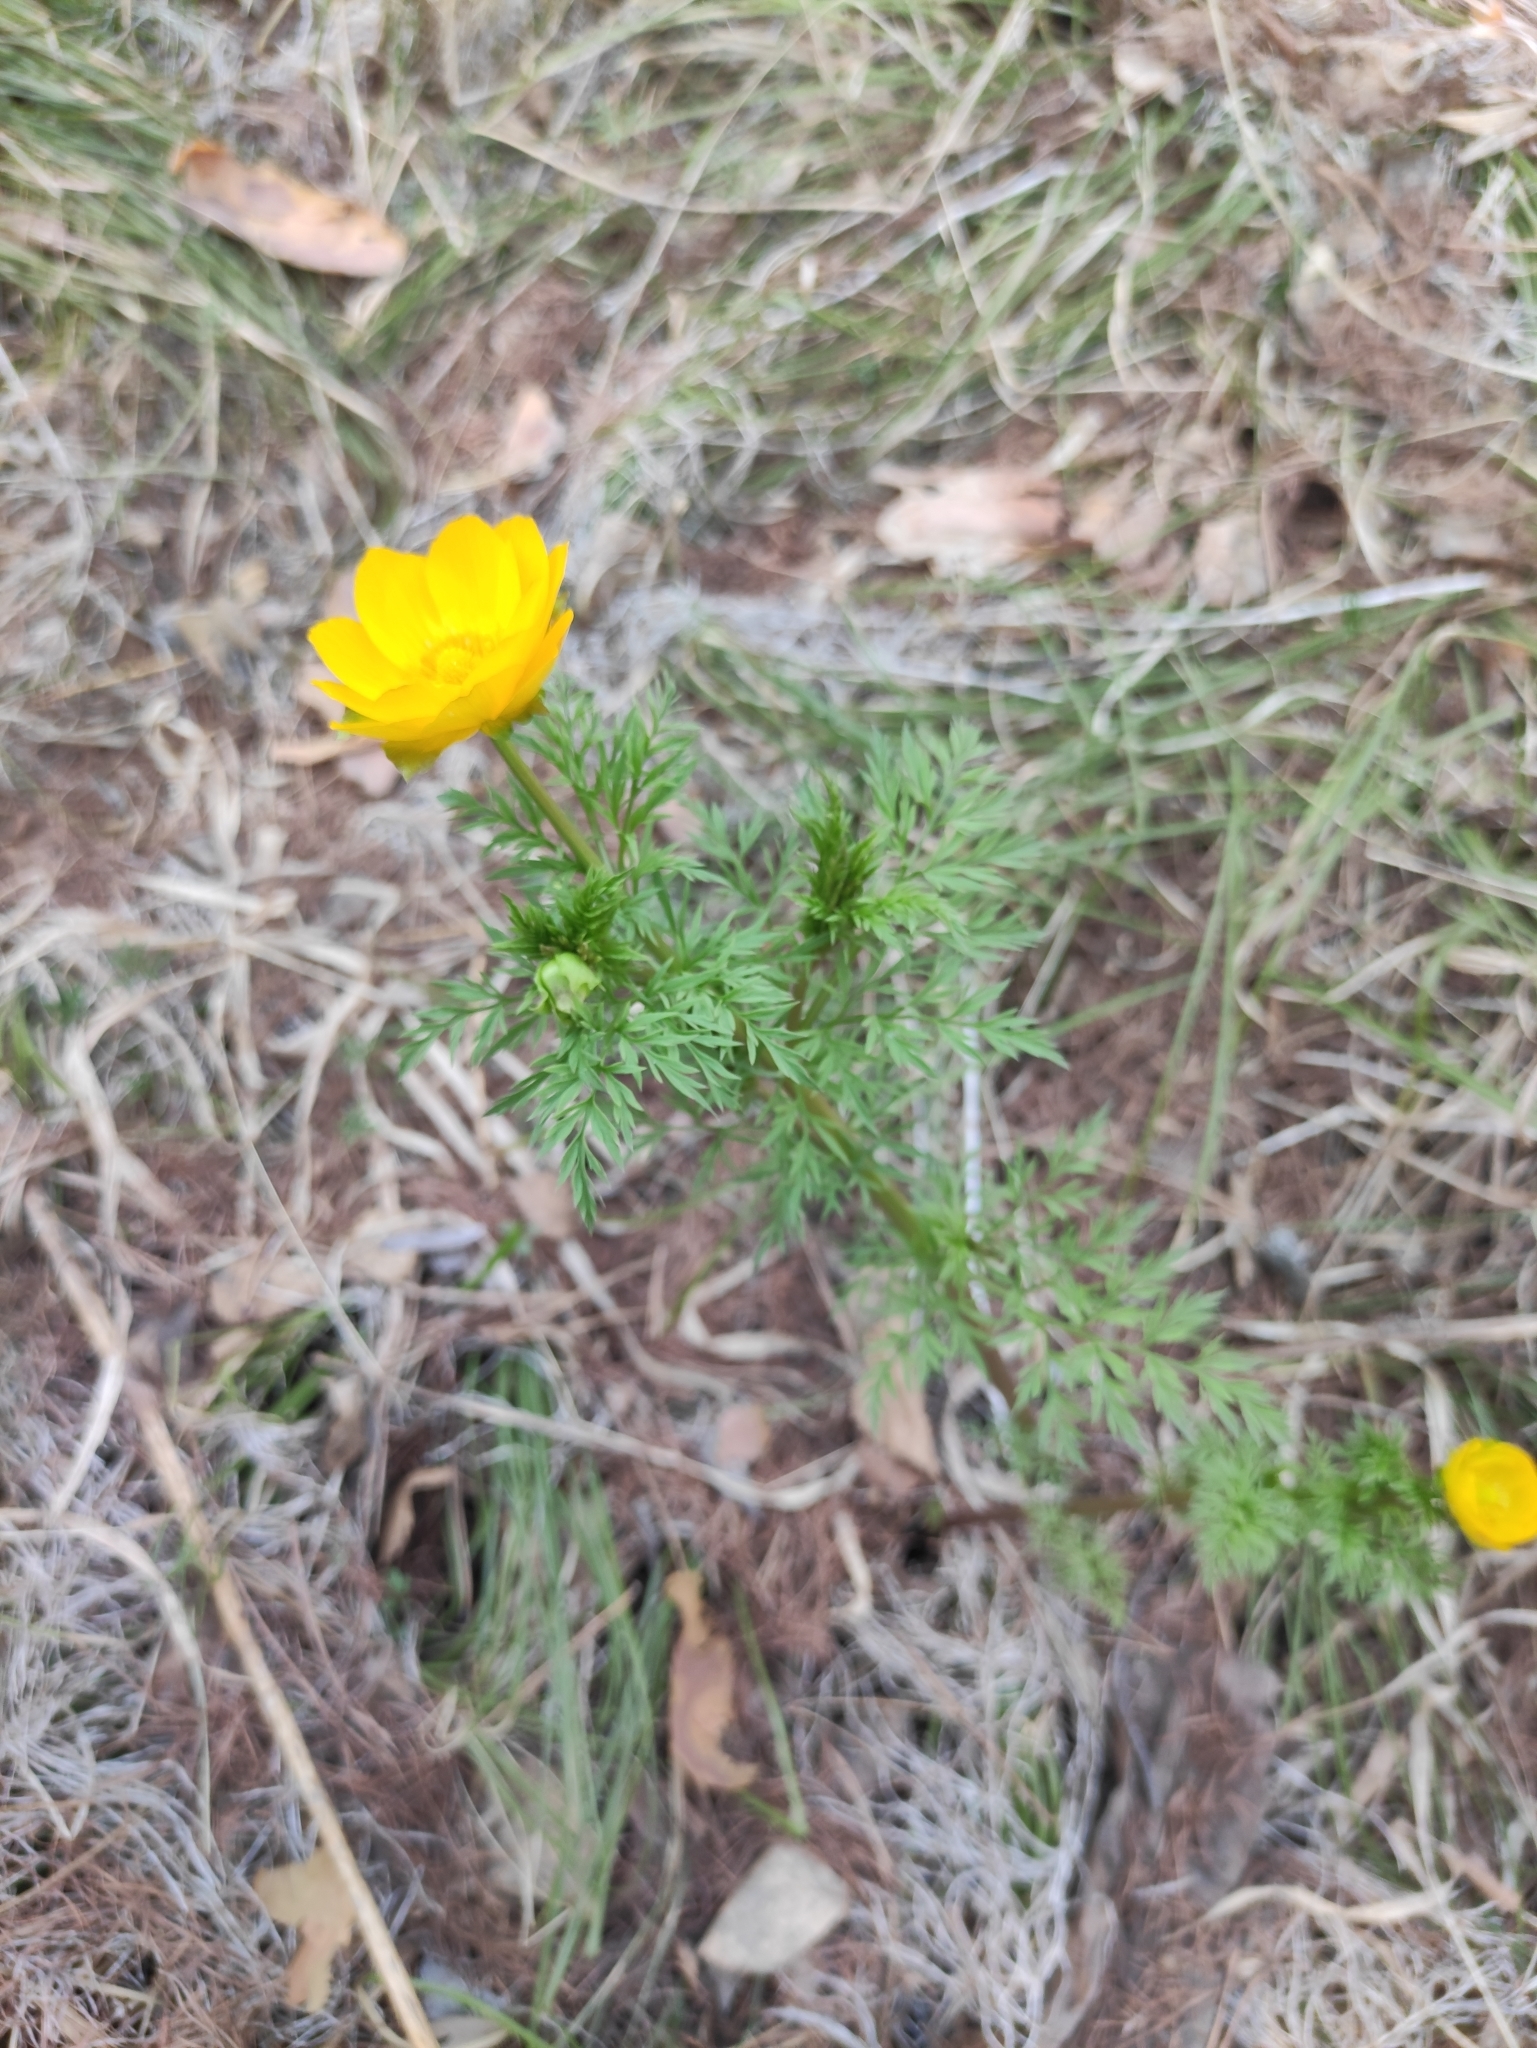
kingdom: Plantae
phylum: Tracheophyta
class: Magnoliopsida
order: Ranunculales
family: Ranunculaceae
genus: Adonis
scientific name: Adonis
